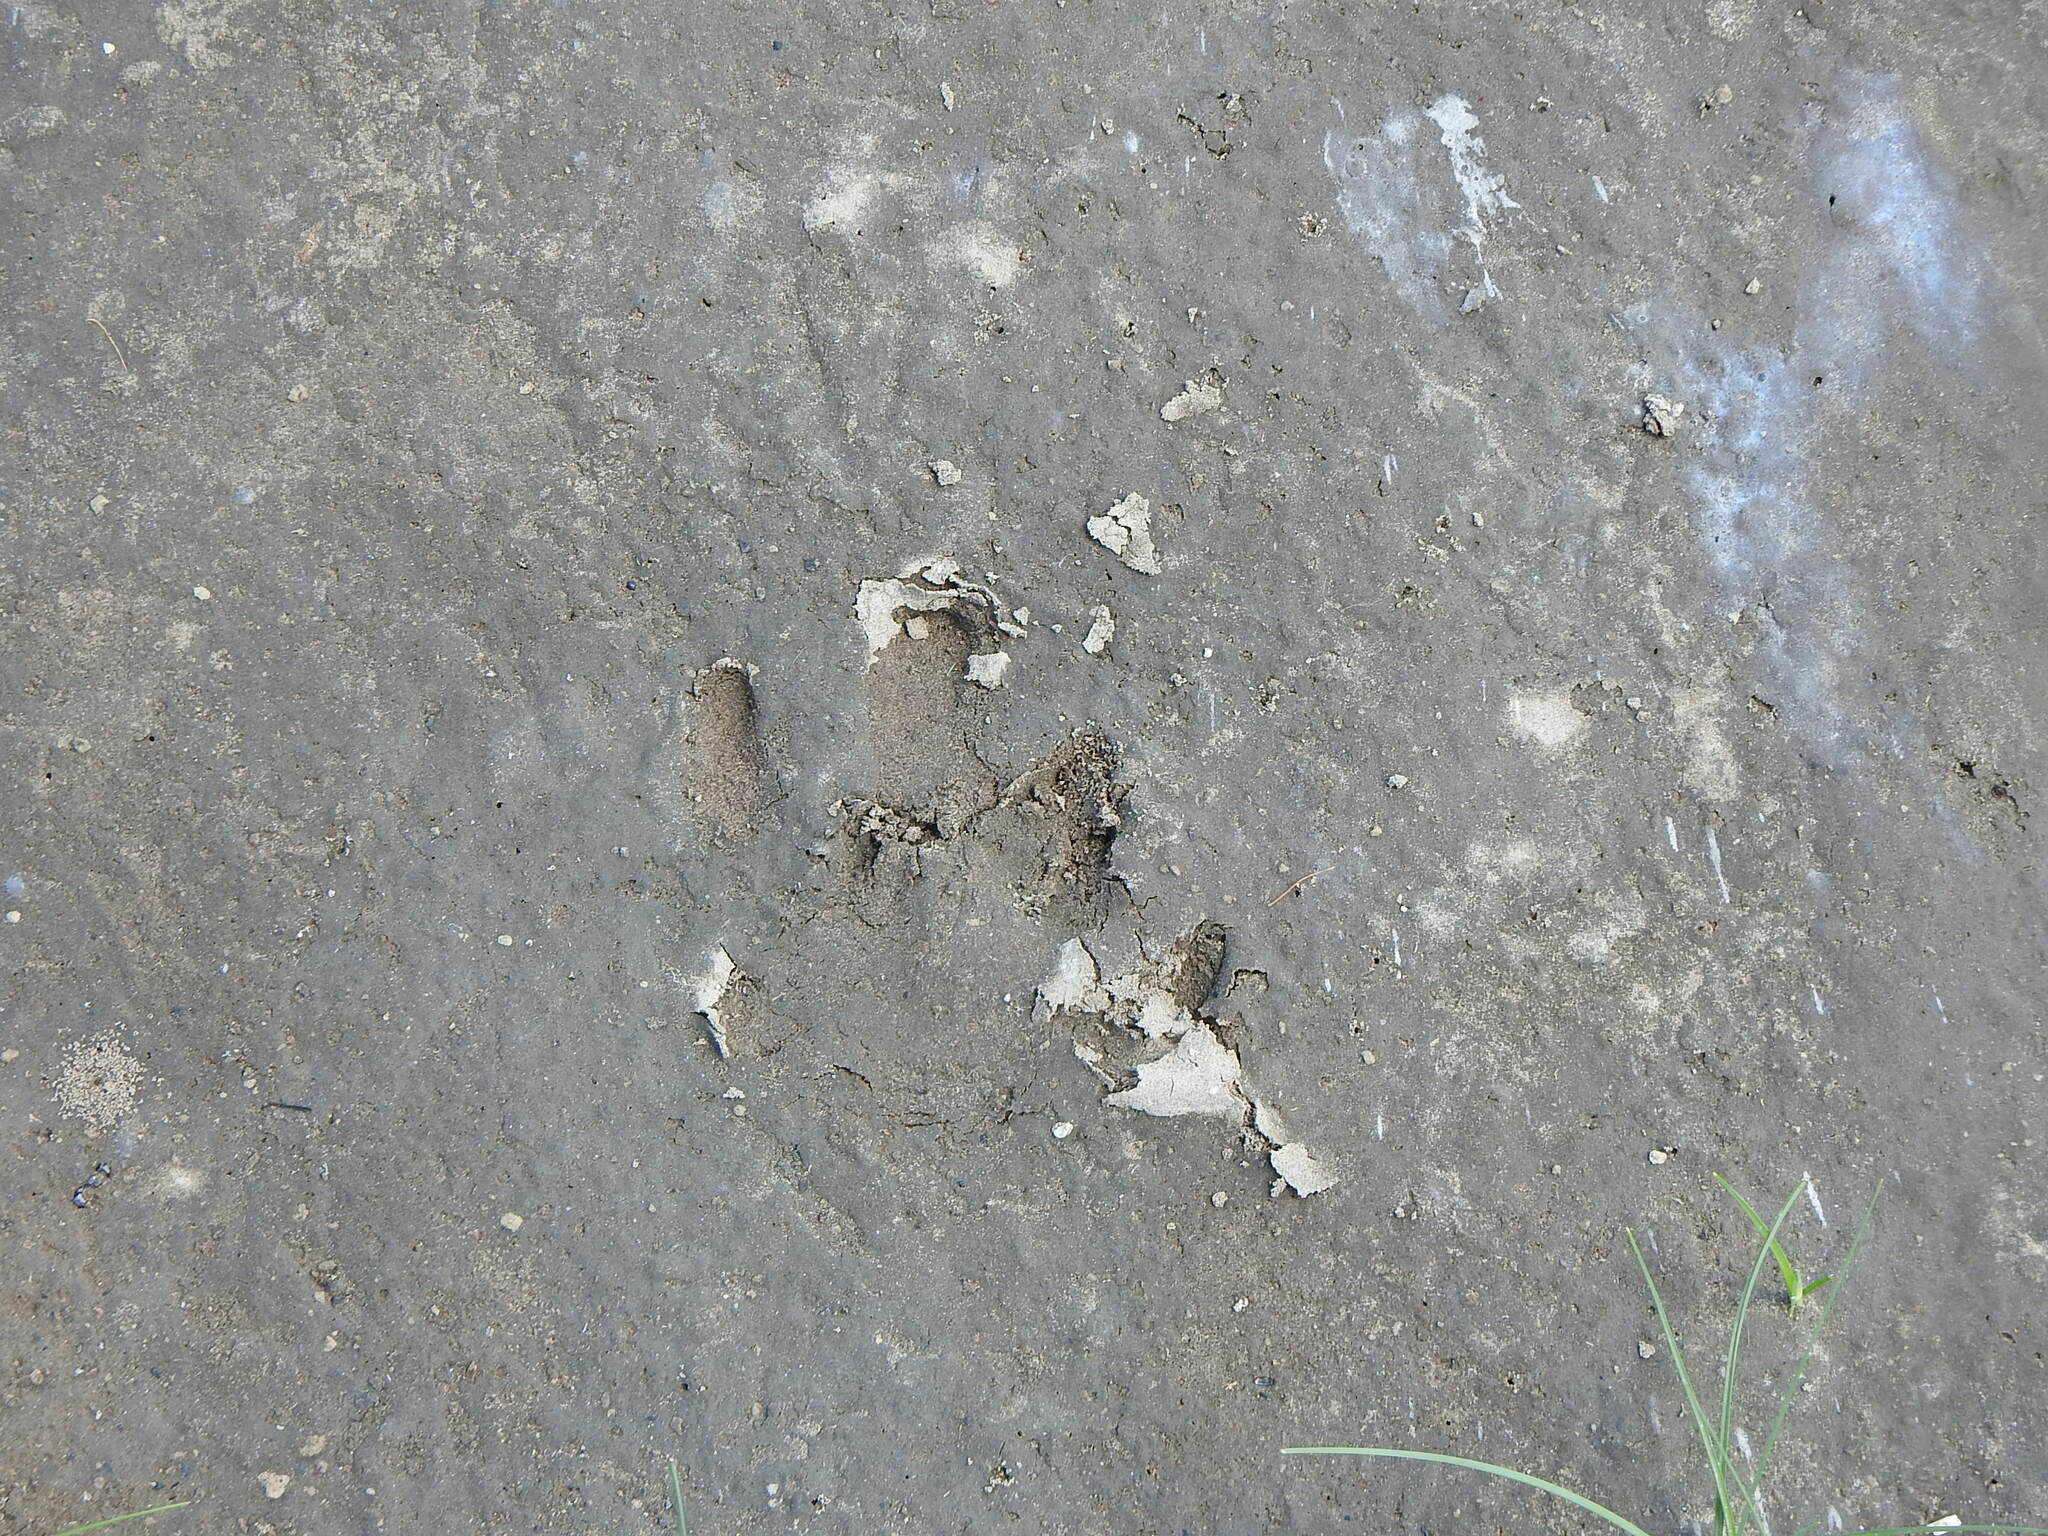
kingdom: Animalia
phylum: Chordata
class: Mammalia
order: Rodentia
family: Caviidae
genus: Hydrochoerus
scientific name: Hydrochoerus hydrochaeris
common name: Capybara
